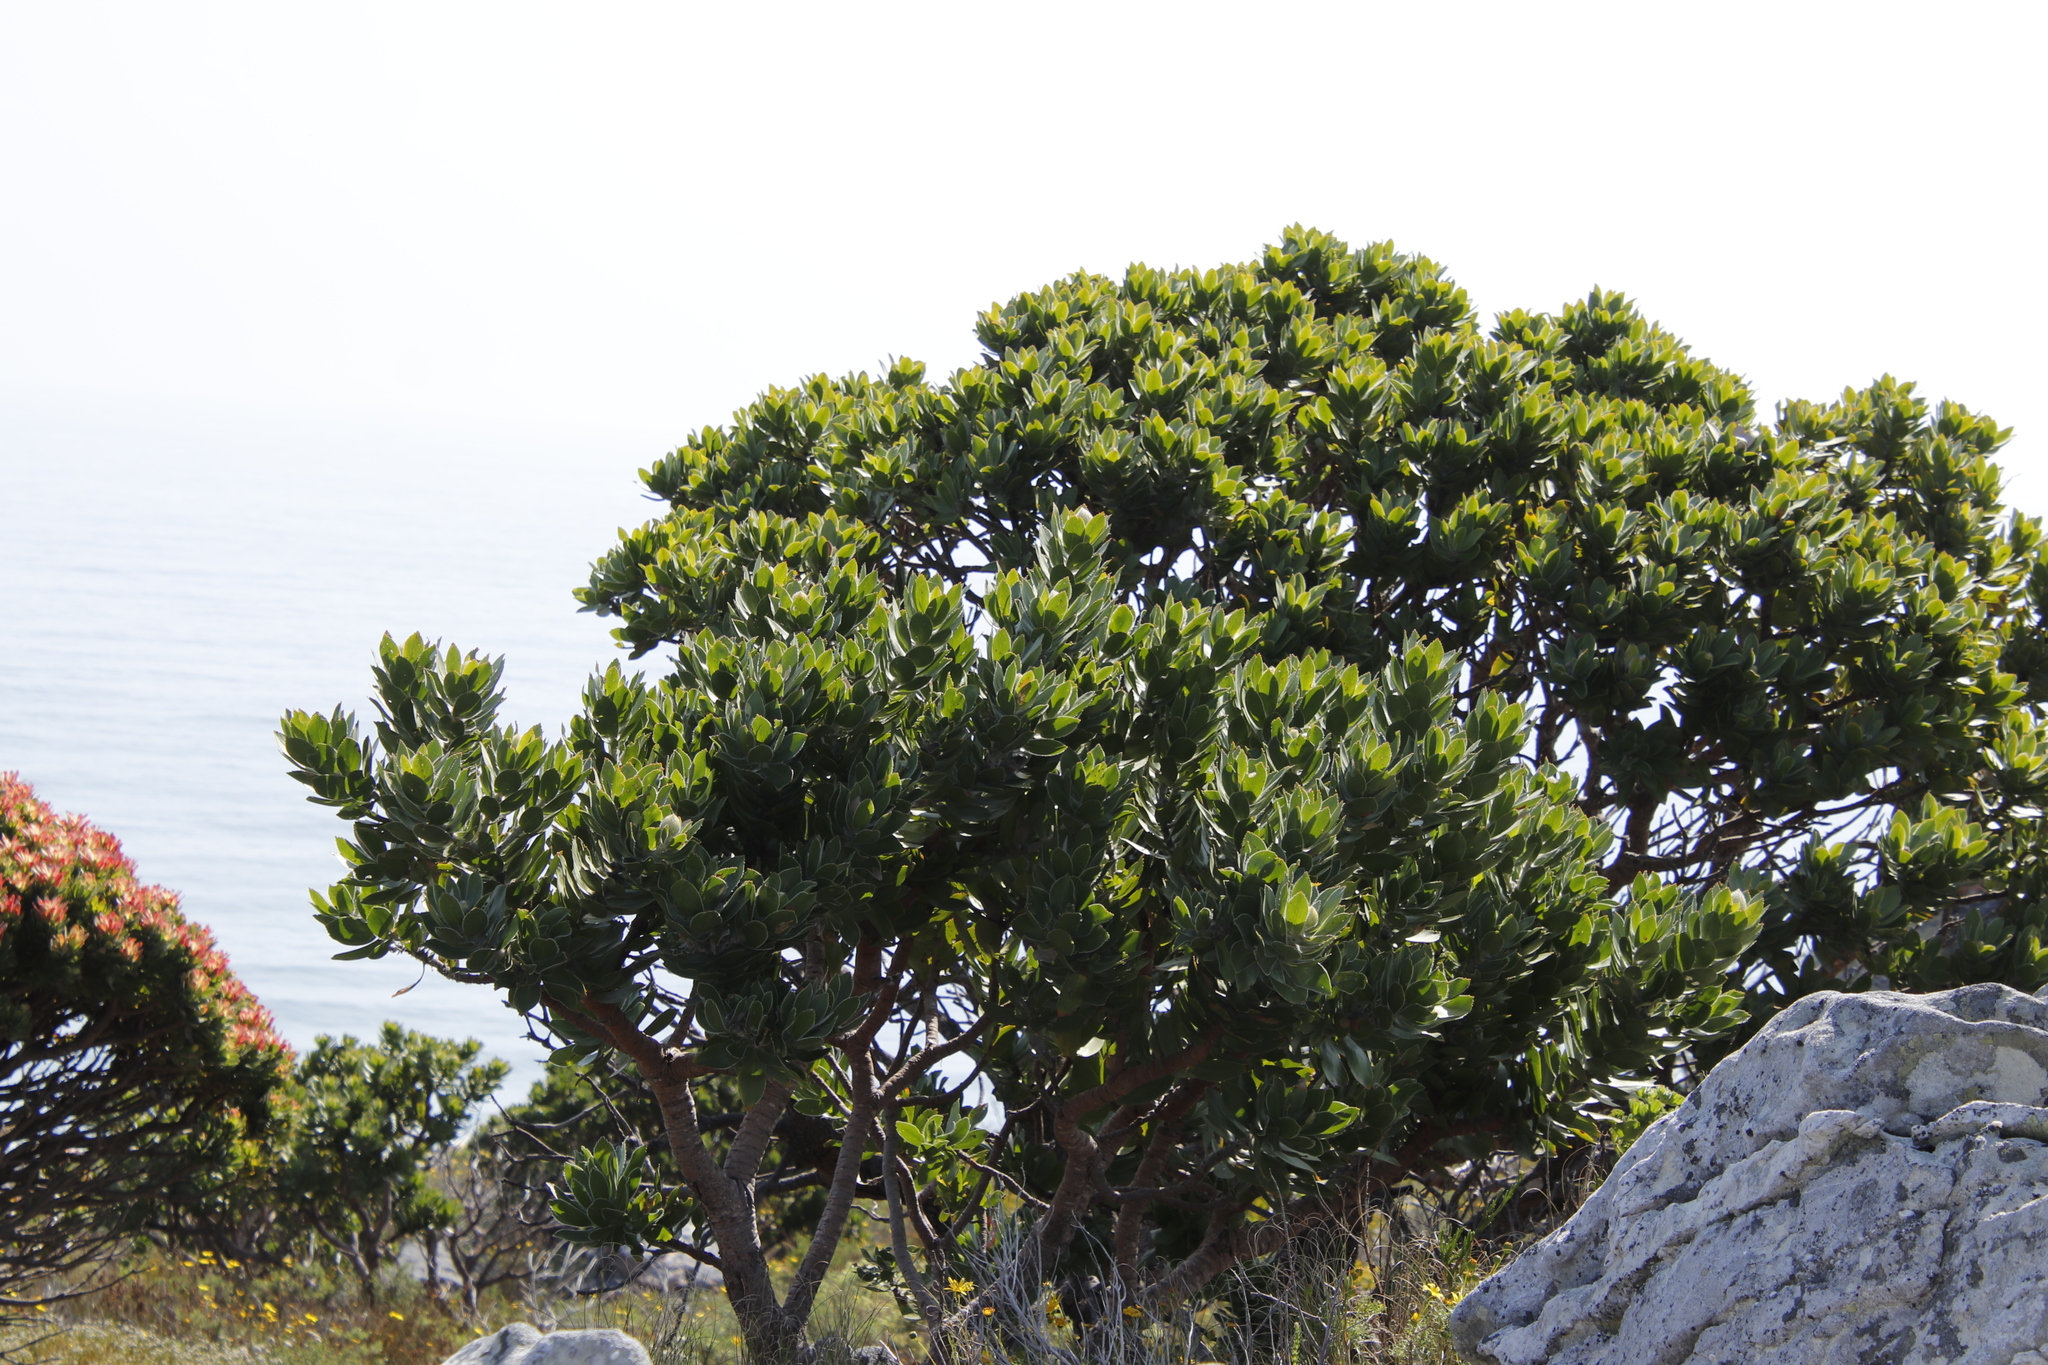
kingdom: Plantae
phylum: Tracheophyta
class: Magnoliopsida
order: Proteales
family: Proteaceae
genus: Leucospermum
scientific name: Leucospermum conocarpodendron
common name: Tree pincushion
